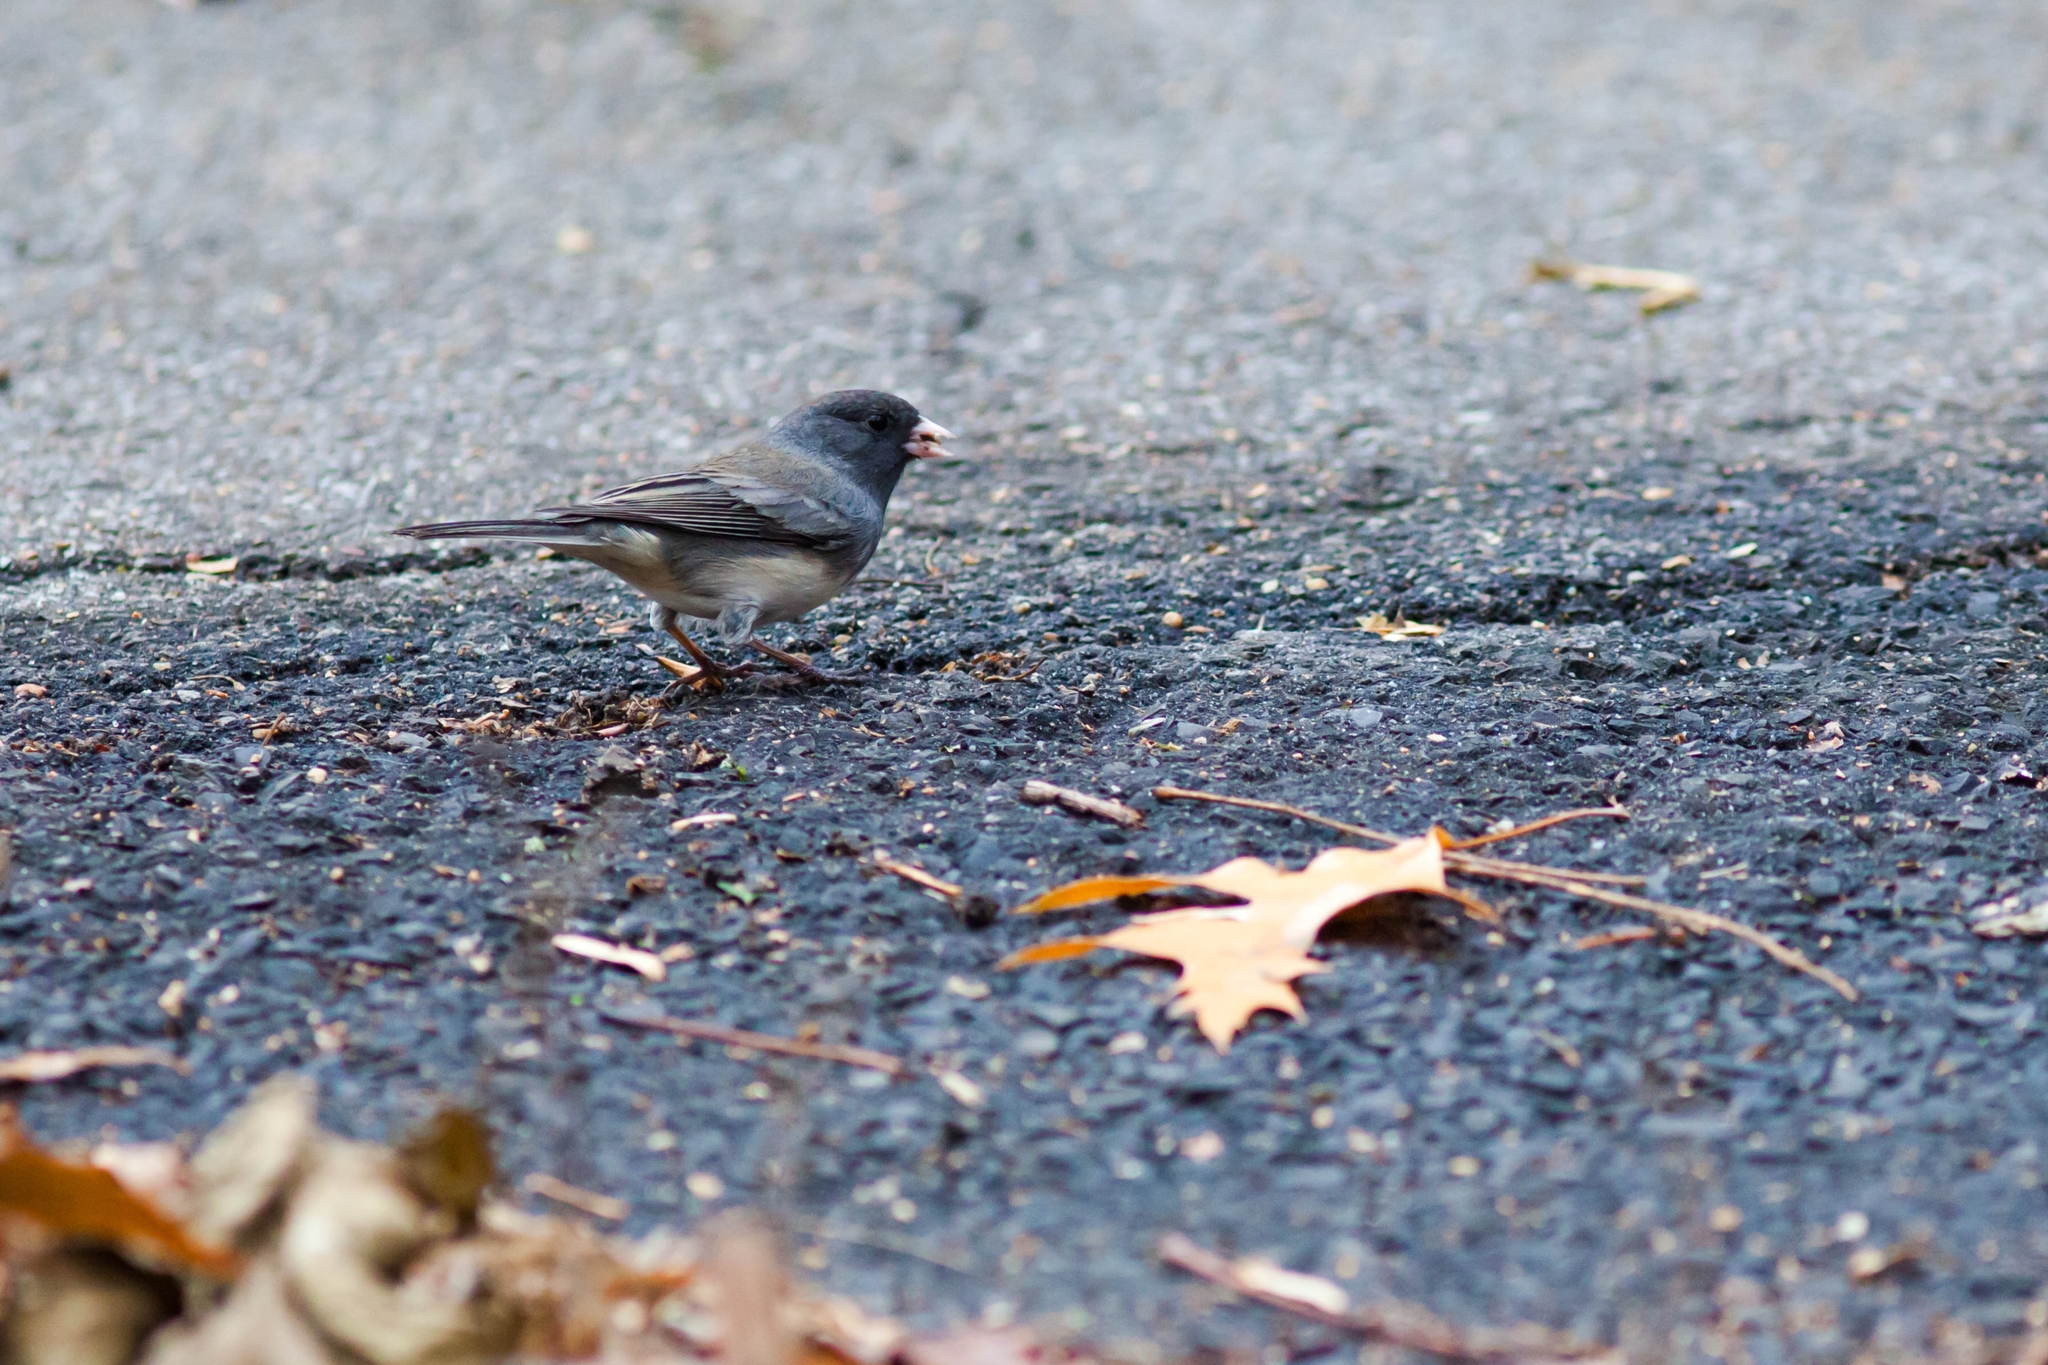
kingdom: Animalia
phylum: Chordata
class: Aves
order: Passeriformes
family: Passerellidae
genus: Junco
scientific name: Junco hyemalis
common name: Dark-eyed junco
